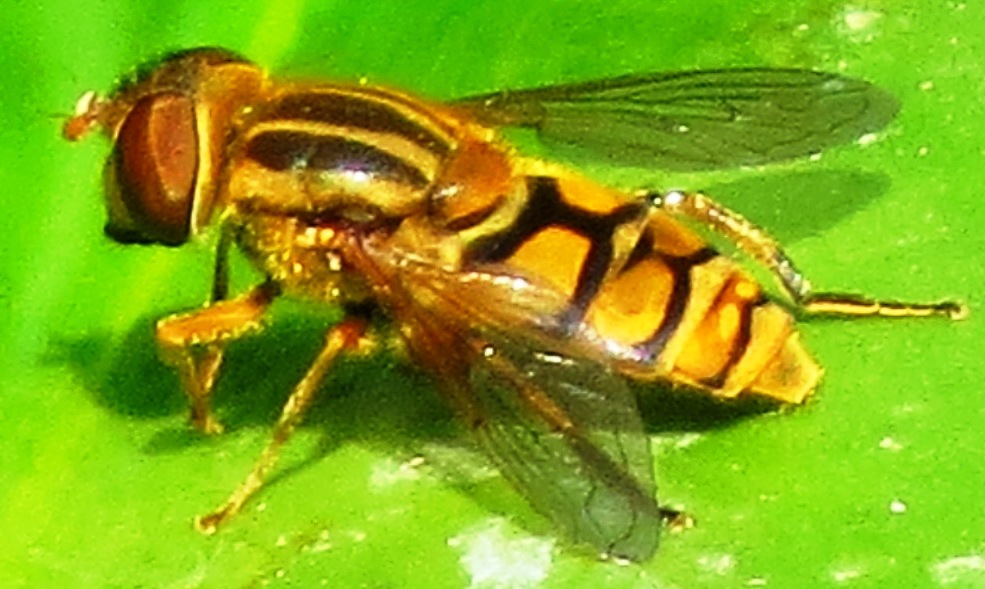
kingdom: Animalia
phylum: Arthropoda
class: Insecta
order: Diptera
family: Syrphidae
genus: Parhelophilus
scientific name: Parhelophilus laetus
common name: Common bog fly
